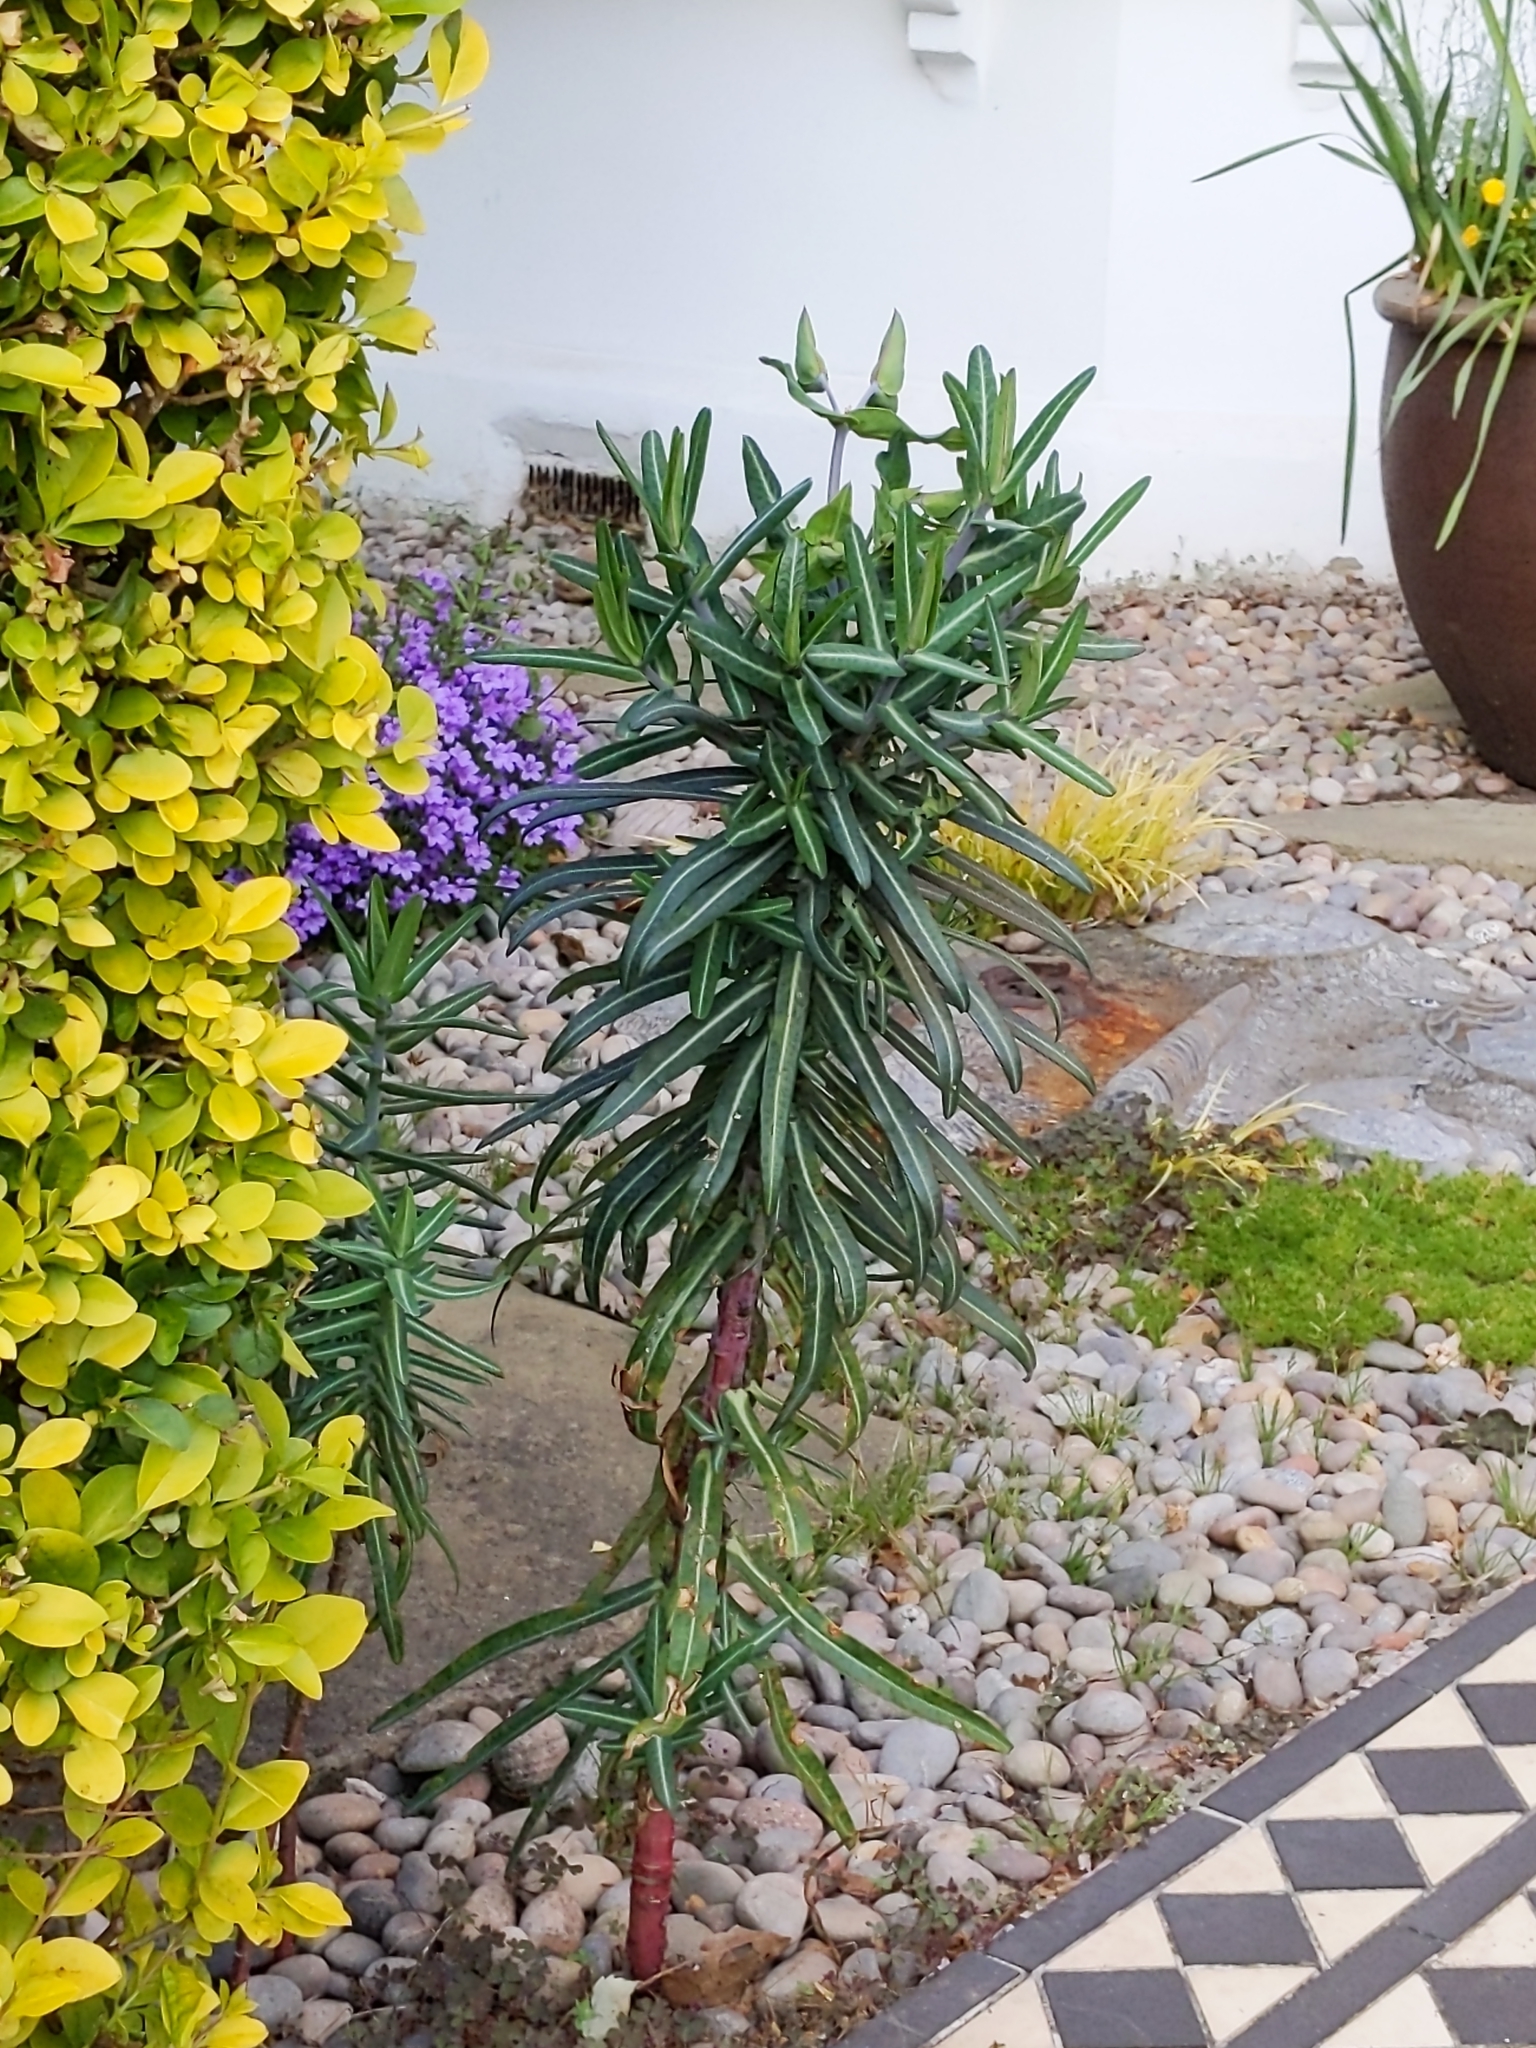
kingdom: Plantae
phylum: Tracheophyta
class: Magnoliopsida
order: Malpighiales
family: Euphorbiaceae
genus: Euphorbia
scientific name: Euphorbia lathyris
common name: Caper spurge
